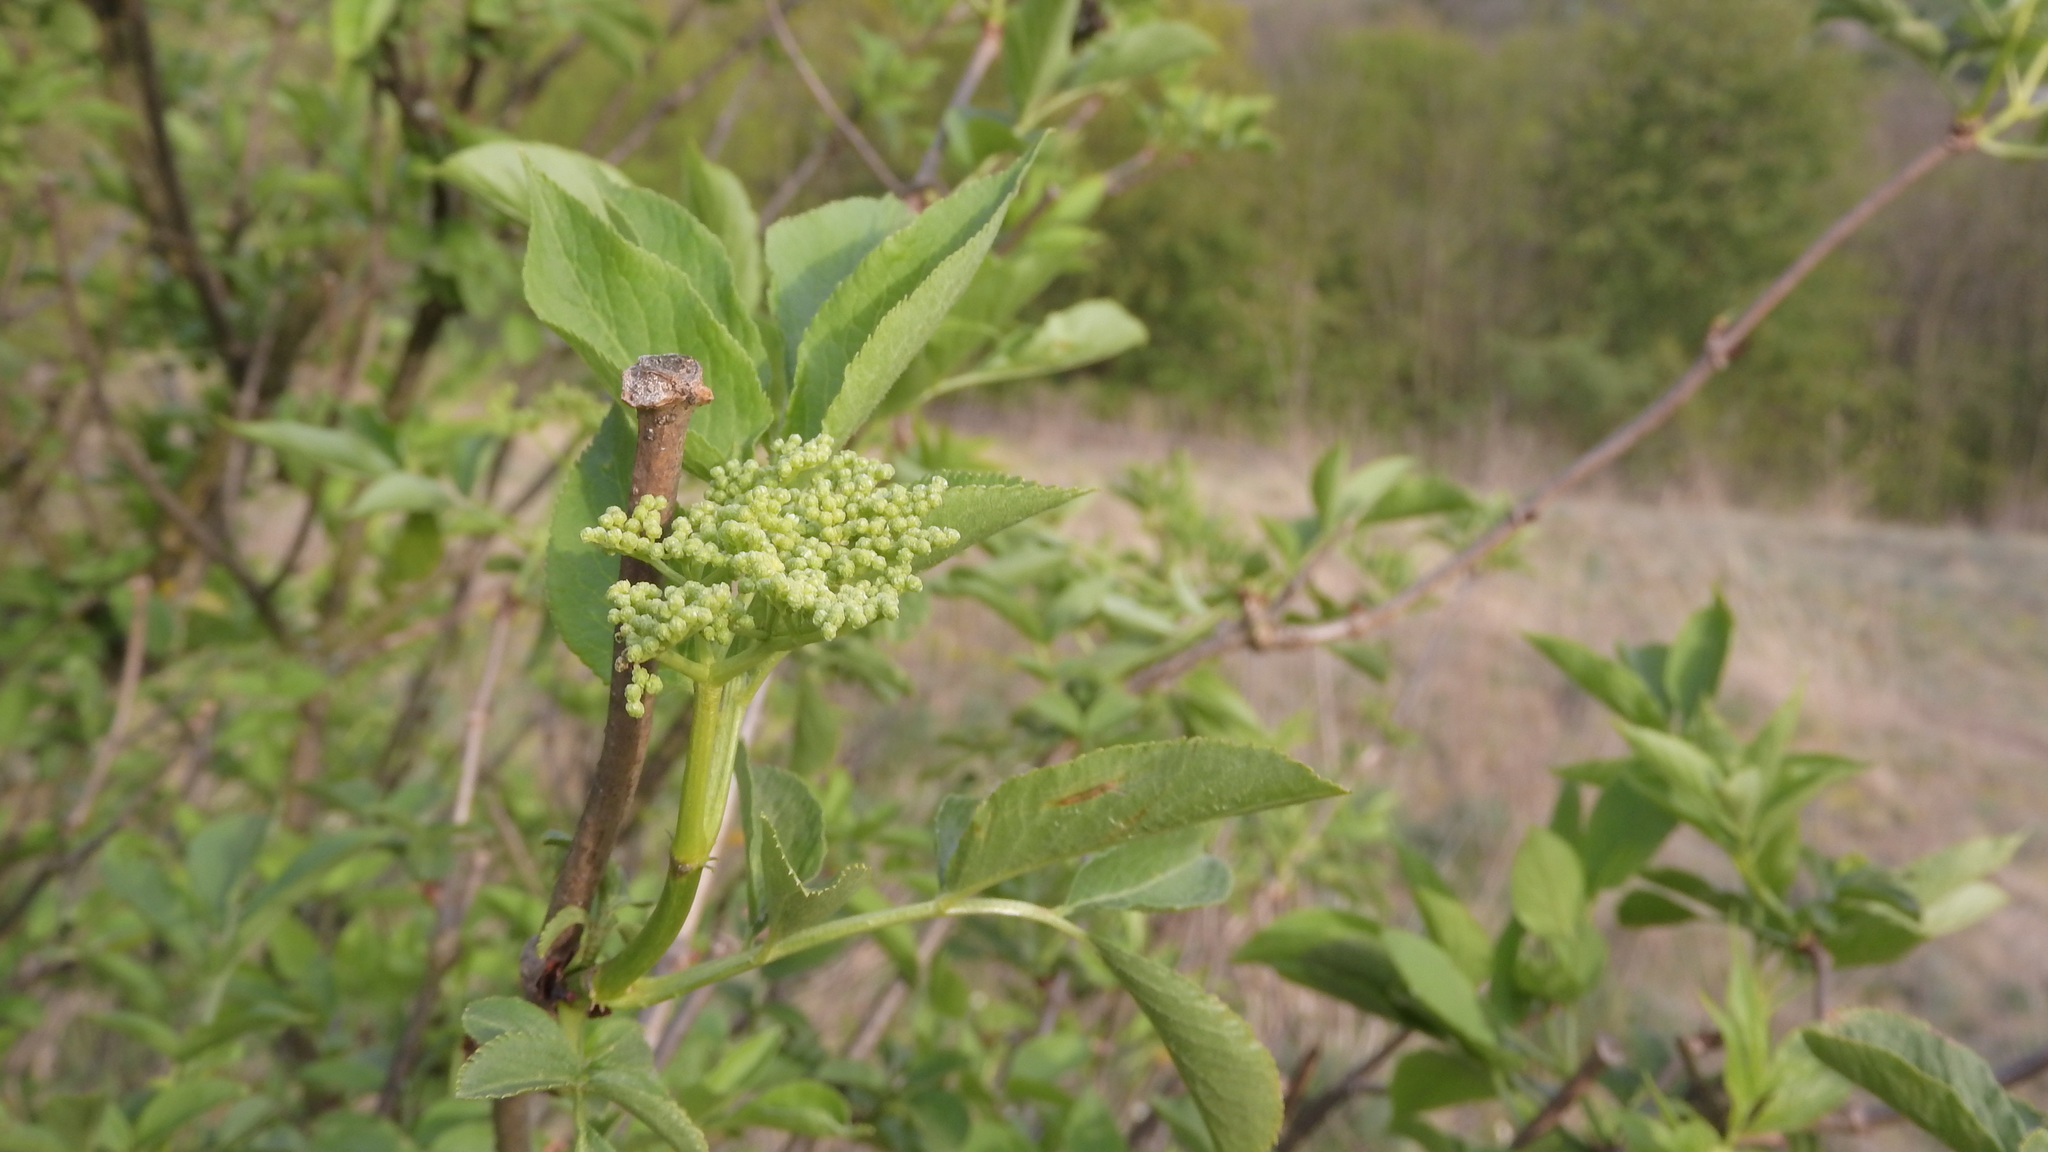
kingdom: Plantae
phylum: Tracheophyta
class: Magnoliopsida
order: Dipsacales
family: Viburnaceae
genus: Sambucus
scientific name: Sambucus nigra
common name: Elder
